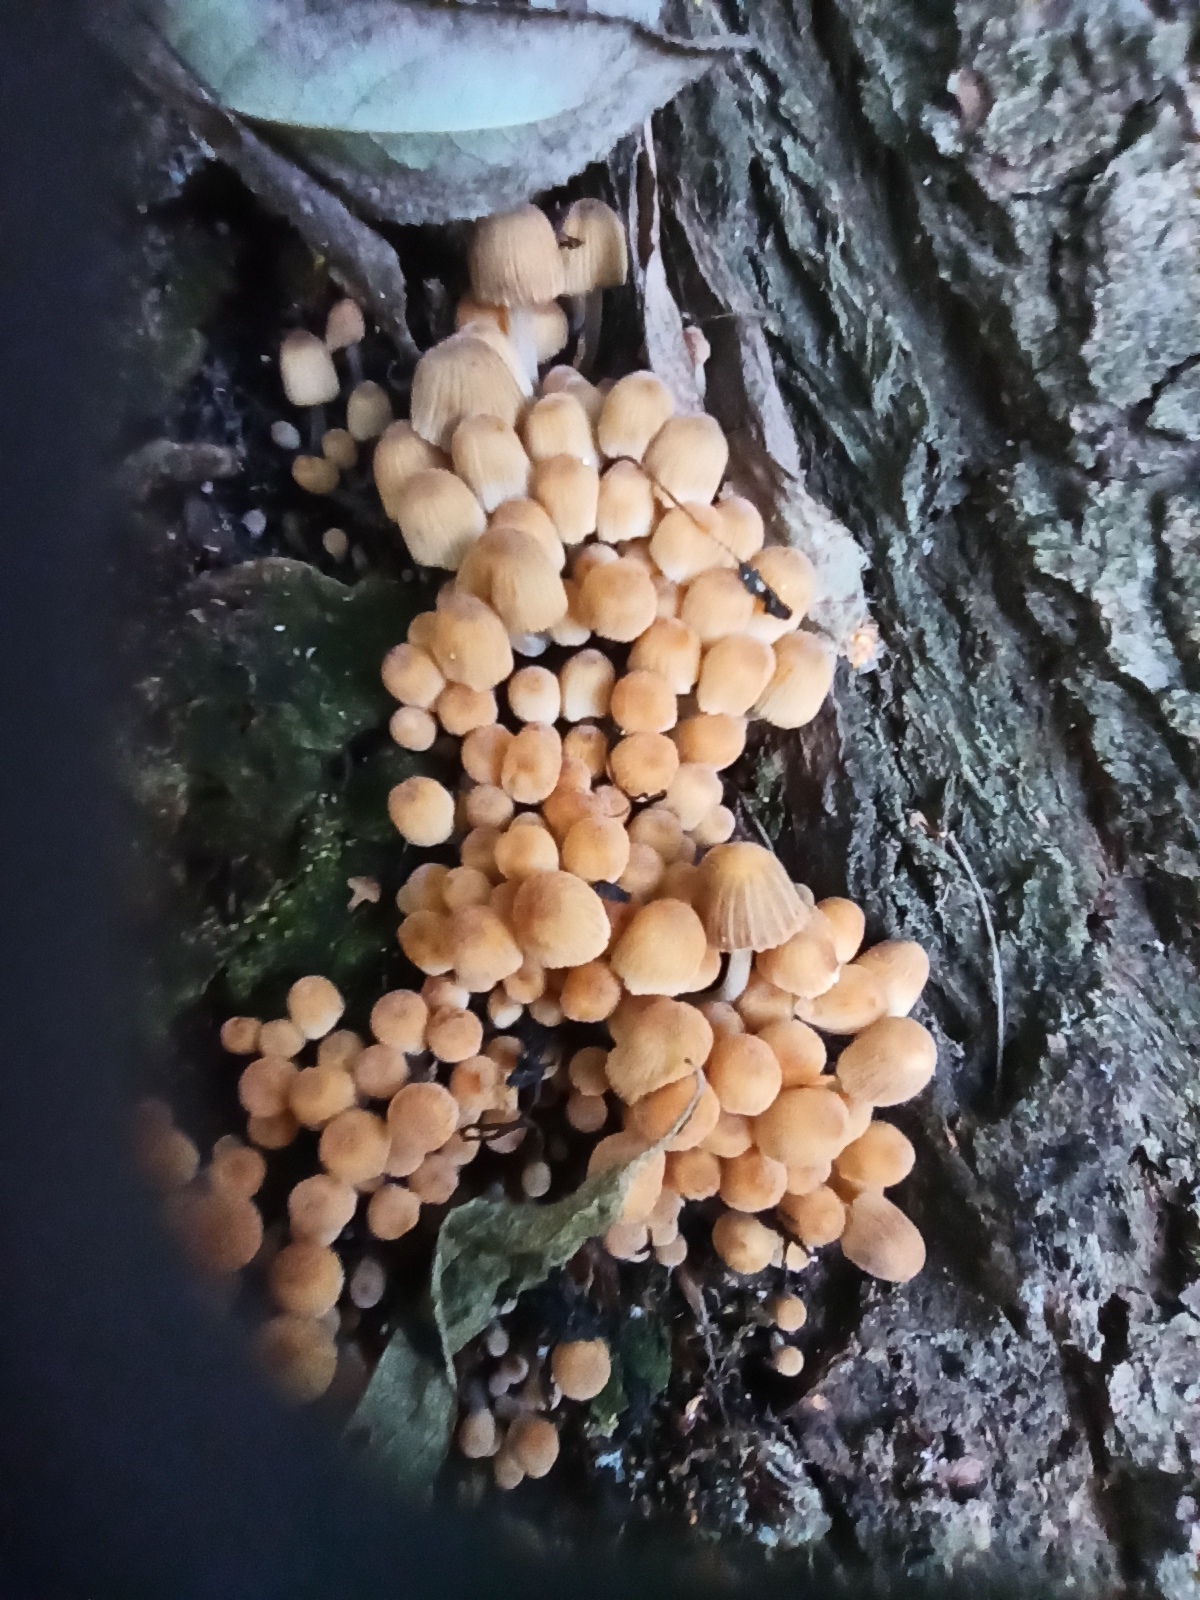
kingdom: Fungi
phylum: Basidiomycota
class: Agaricomycetes
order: Agaricales
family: Psathyrellaceae
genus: Coprinellus
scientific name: Coprinellus disseminatus
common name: Fairies' bonnets
